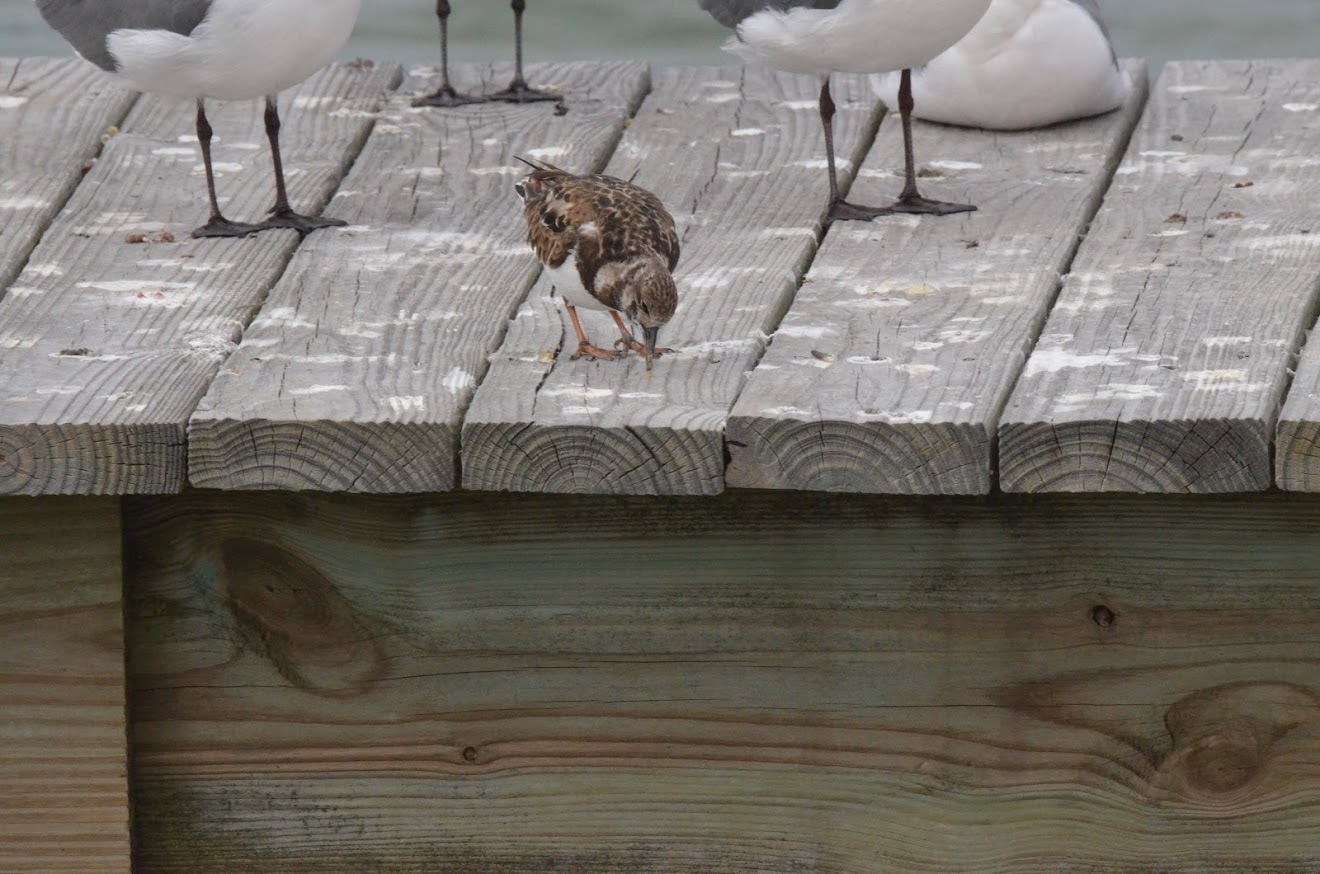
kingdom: Animalia
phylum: Chordata
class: Aves
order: Charadriiformes
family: Scolopacidae
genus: Arenaria
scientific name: Arenaria interpres
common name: Ruddy turnstone
